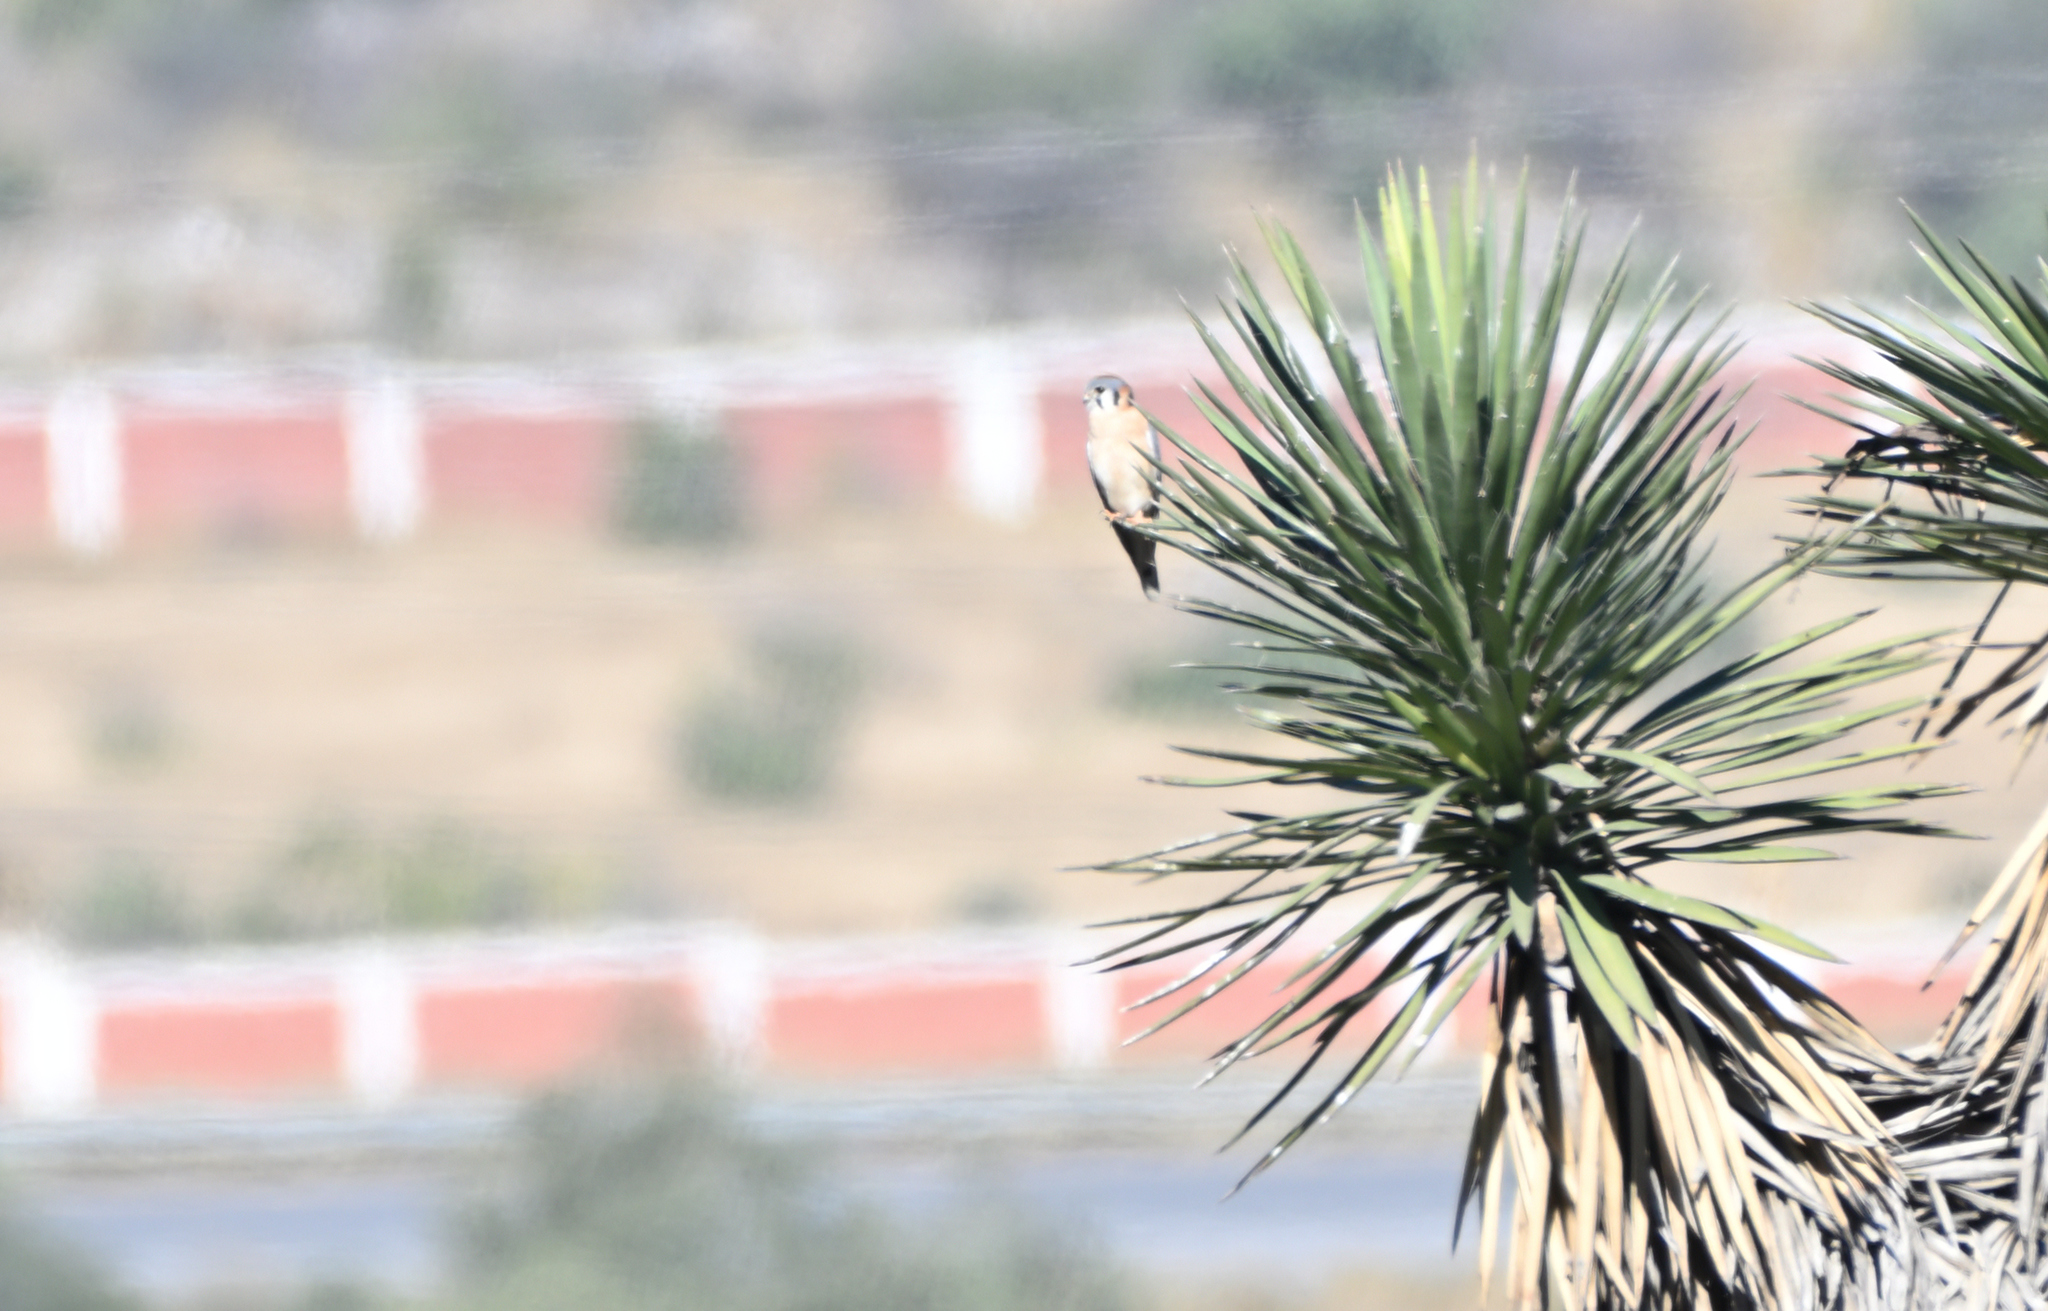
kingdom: Animalia
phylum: Chordata
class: Aves
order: Falconiformes
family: Falconidae
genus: Falco
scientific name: Falco sparverius
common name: American kestrel
